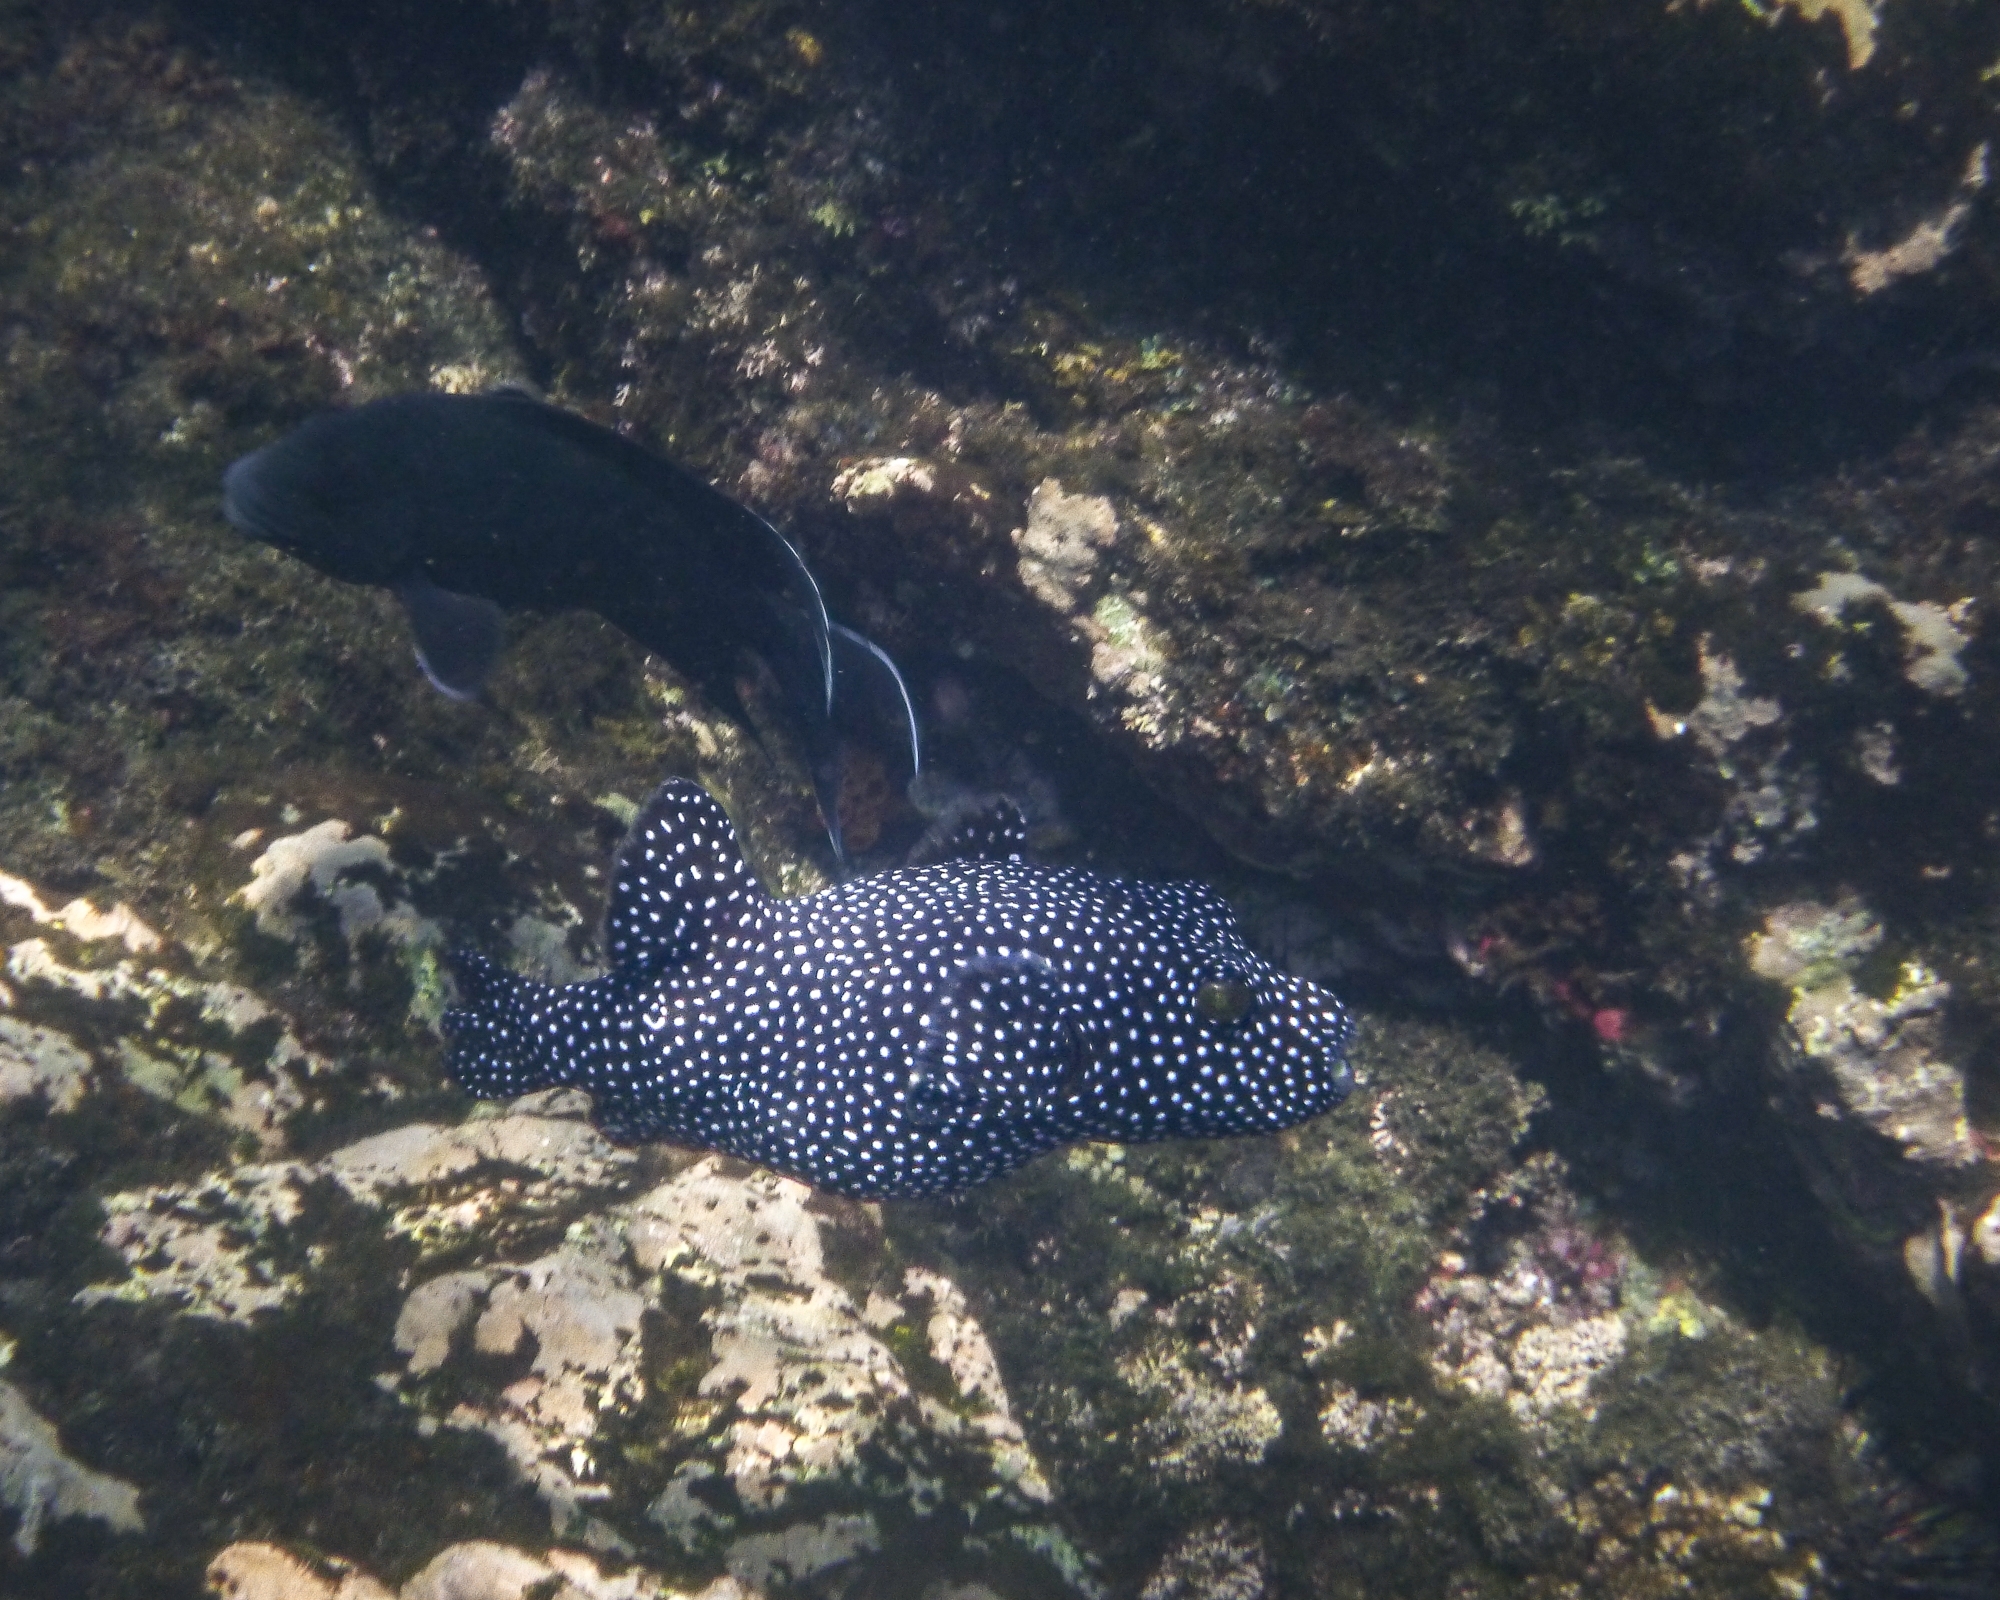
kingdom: Animalia
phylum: Chordata
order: Tetraodontiformes
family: Tetraodontidae
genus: Arothron
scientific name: Arothron meleagris
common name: Guinea-fowl pufferfish
